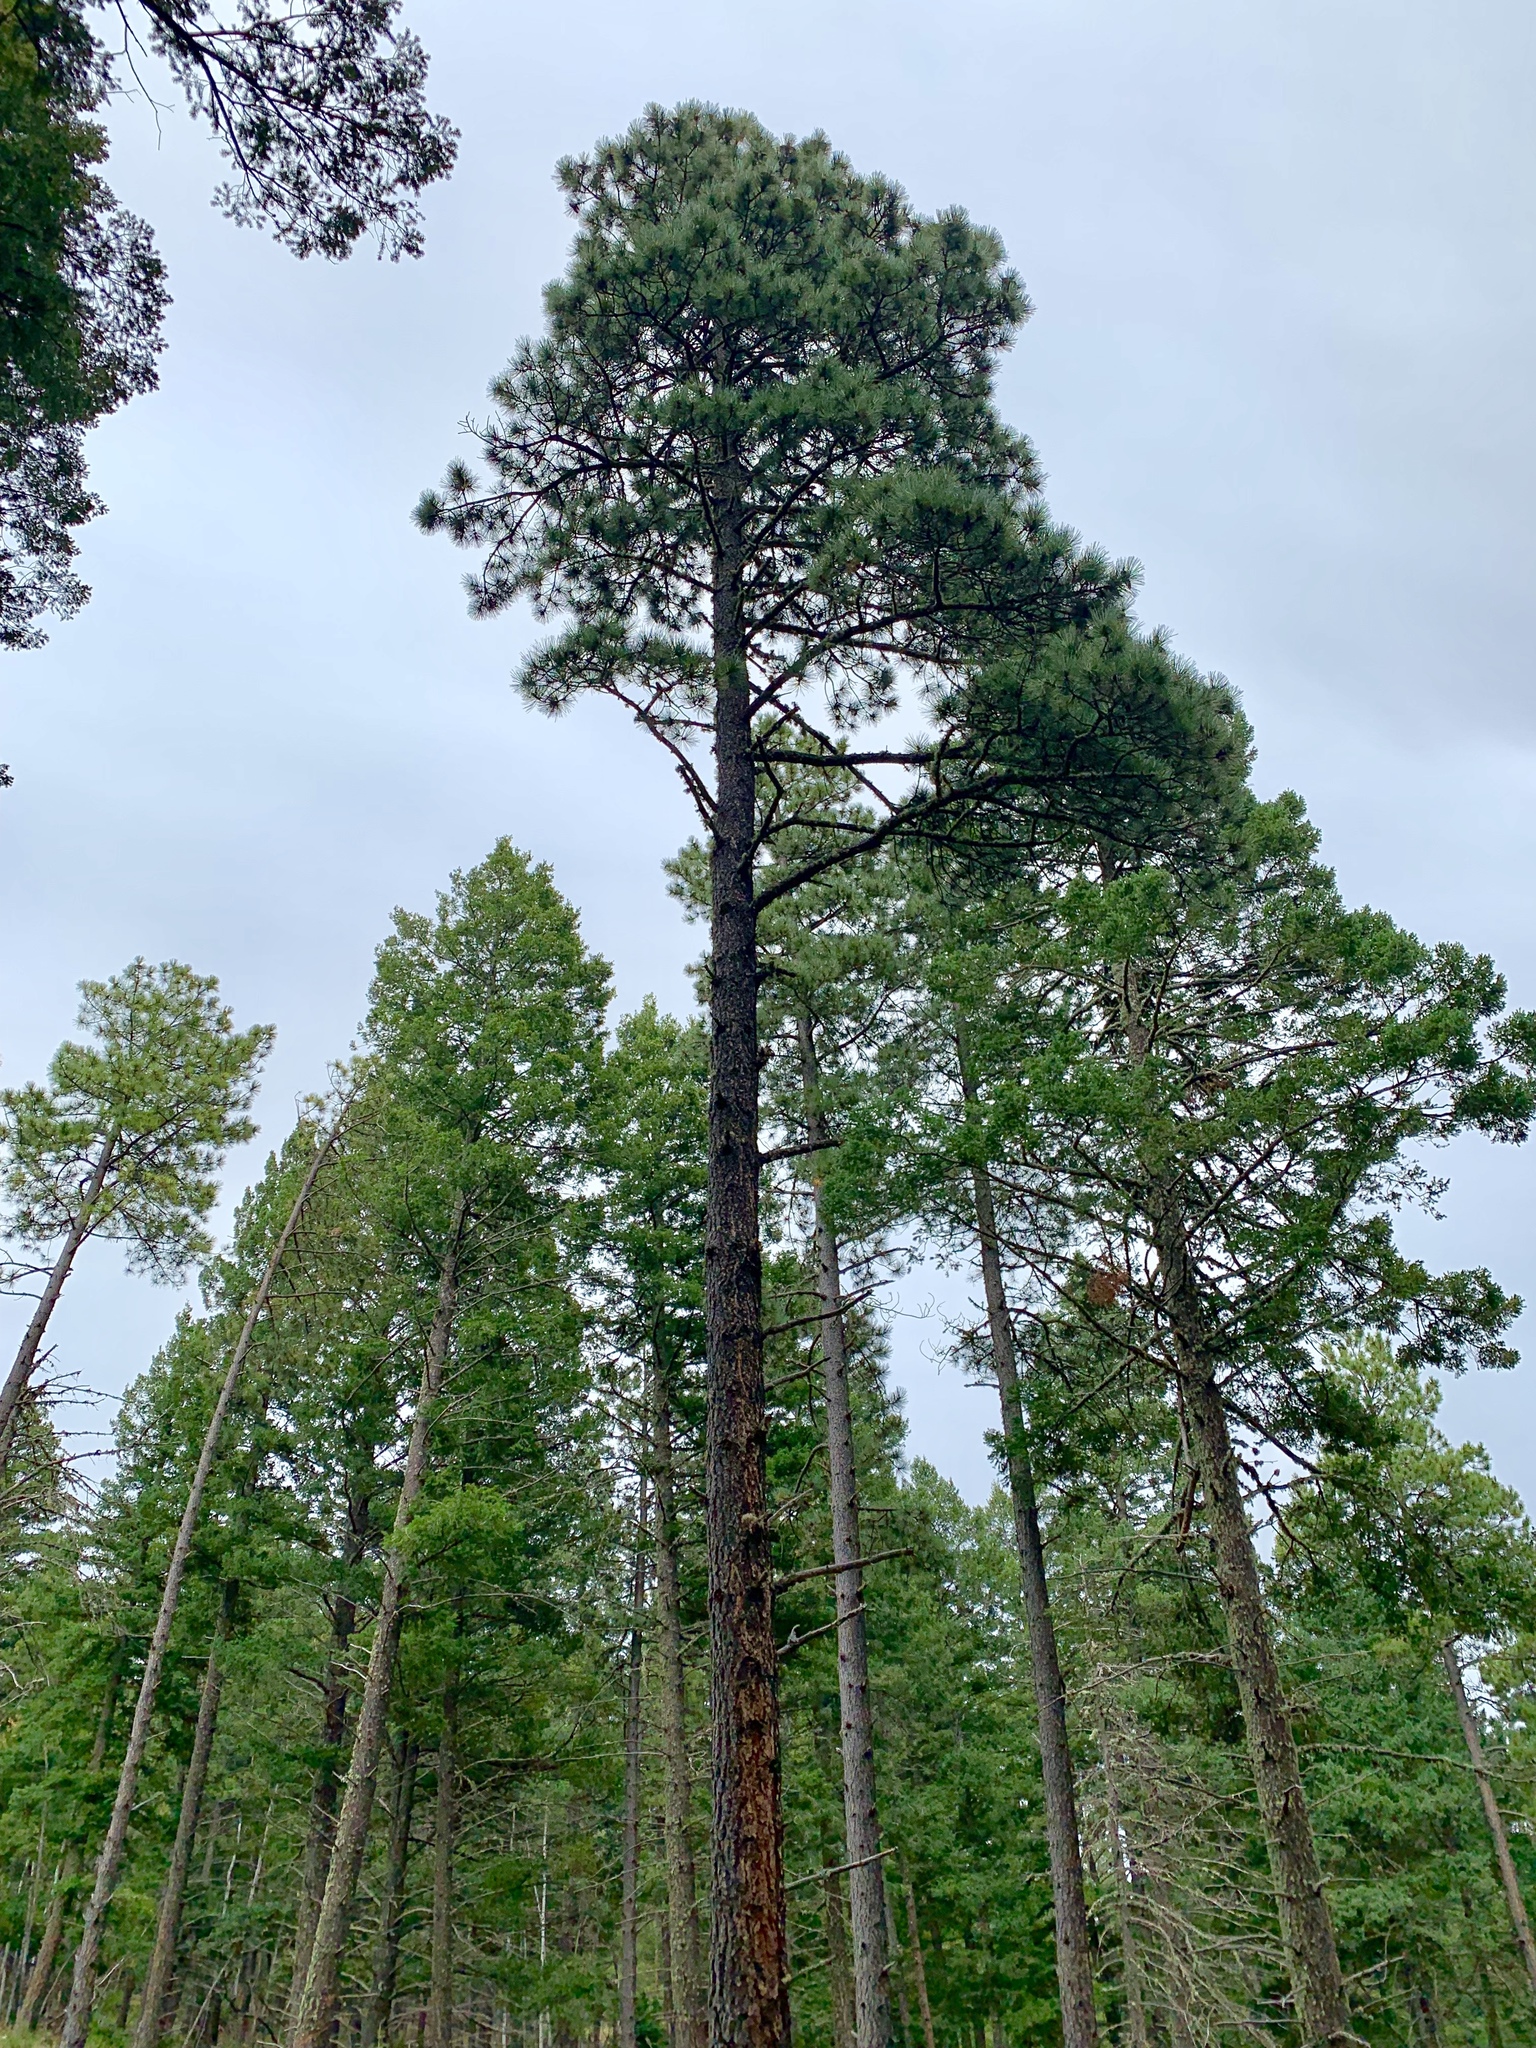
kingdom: Plantae
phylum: Tracheophyta
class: Pinopsida
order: Pinales
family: Pinaceae
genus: Pinus
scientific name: Pinus ponderosa
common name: Western yellow-pine
